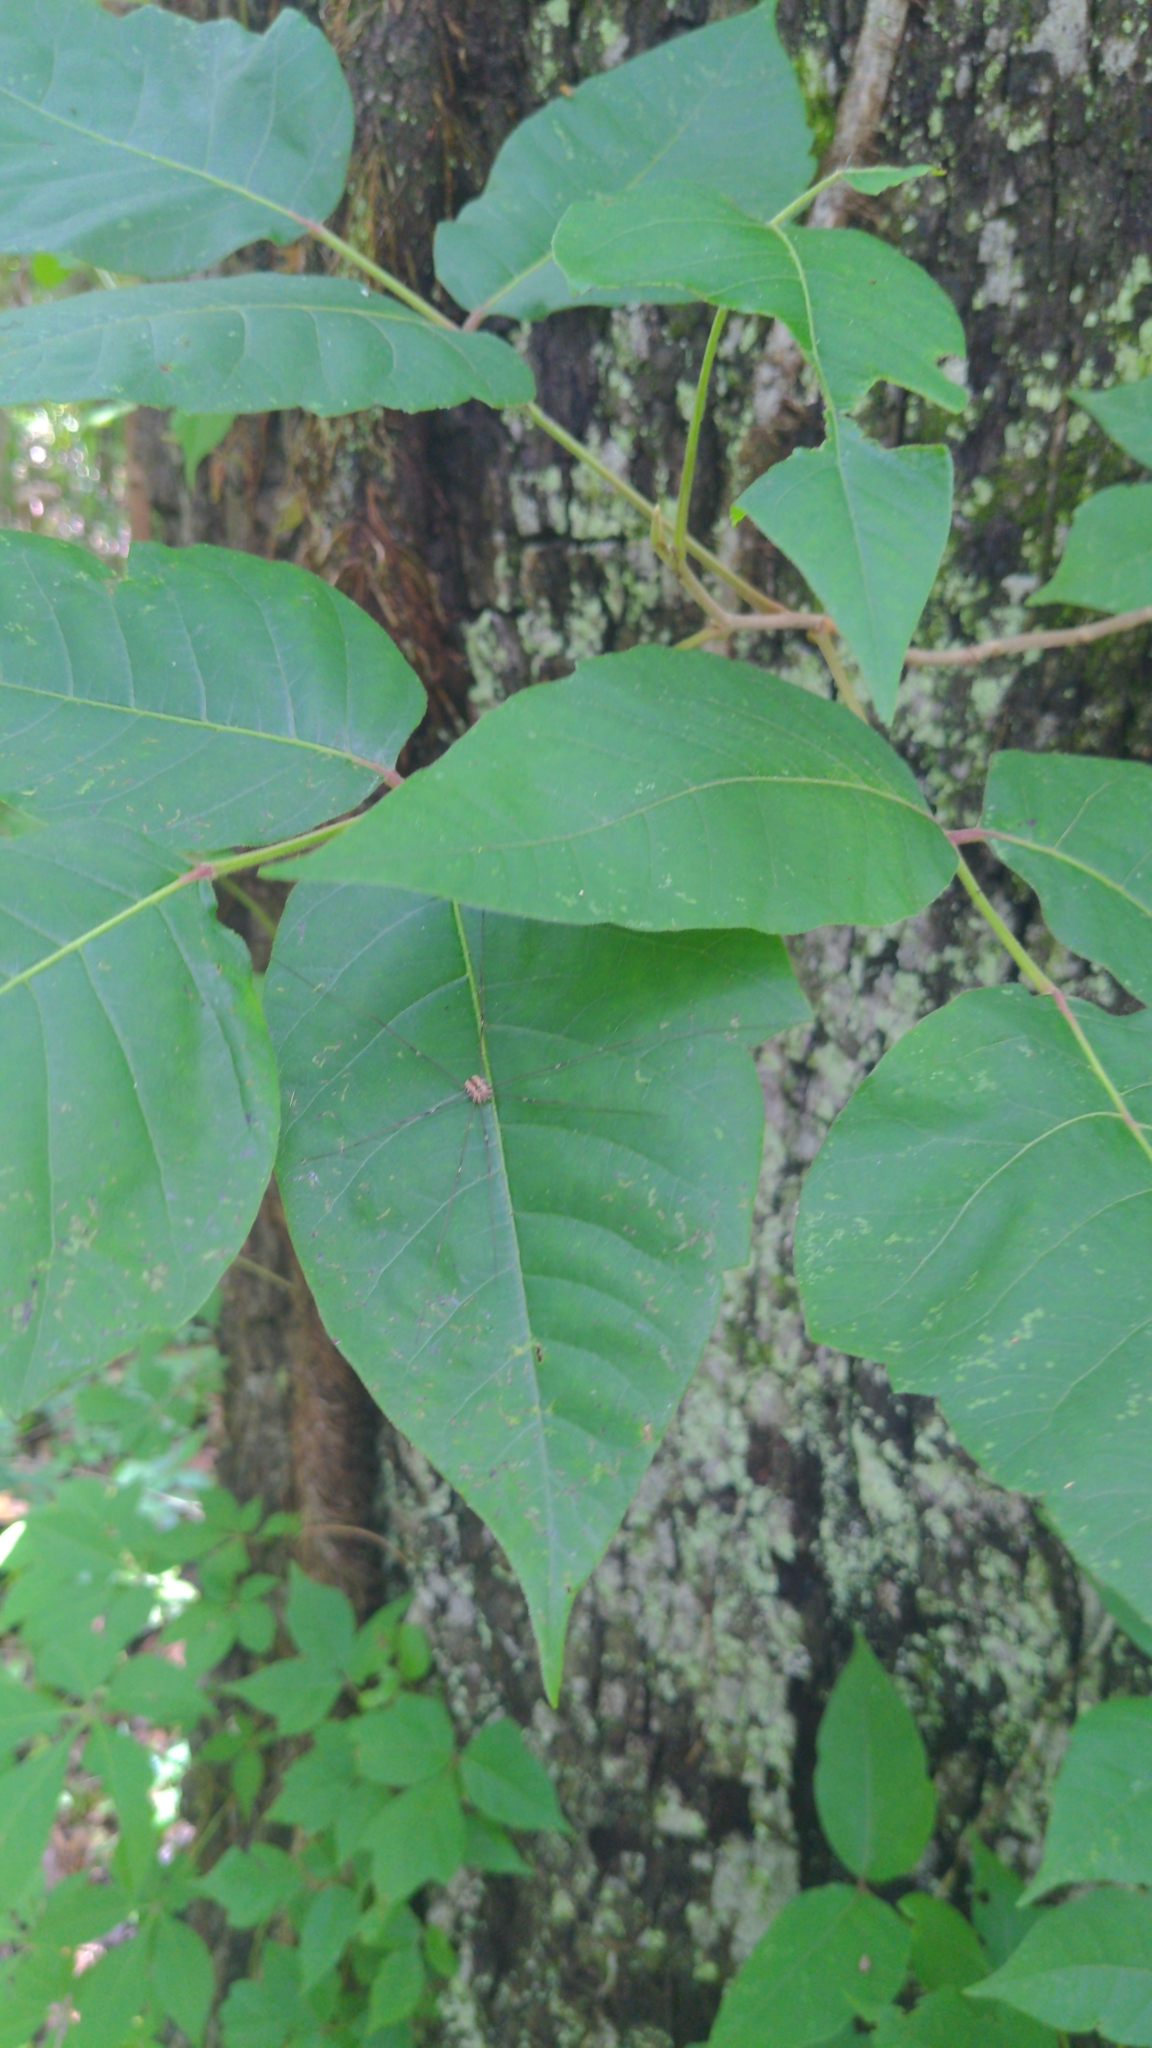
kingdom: Plantae
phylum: Tracheophyta
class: Magnoliopsida
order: Sapindales
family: Anacardiaceae
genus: Toxicodendron
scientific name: Toxicodendron radicans
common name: Poison ivy
